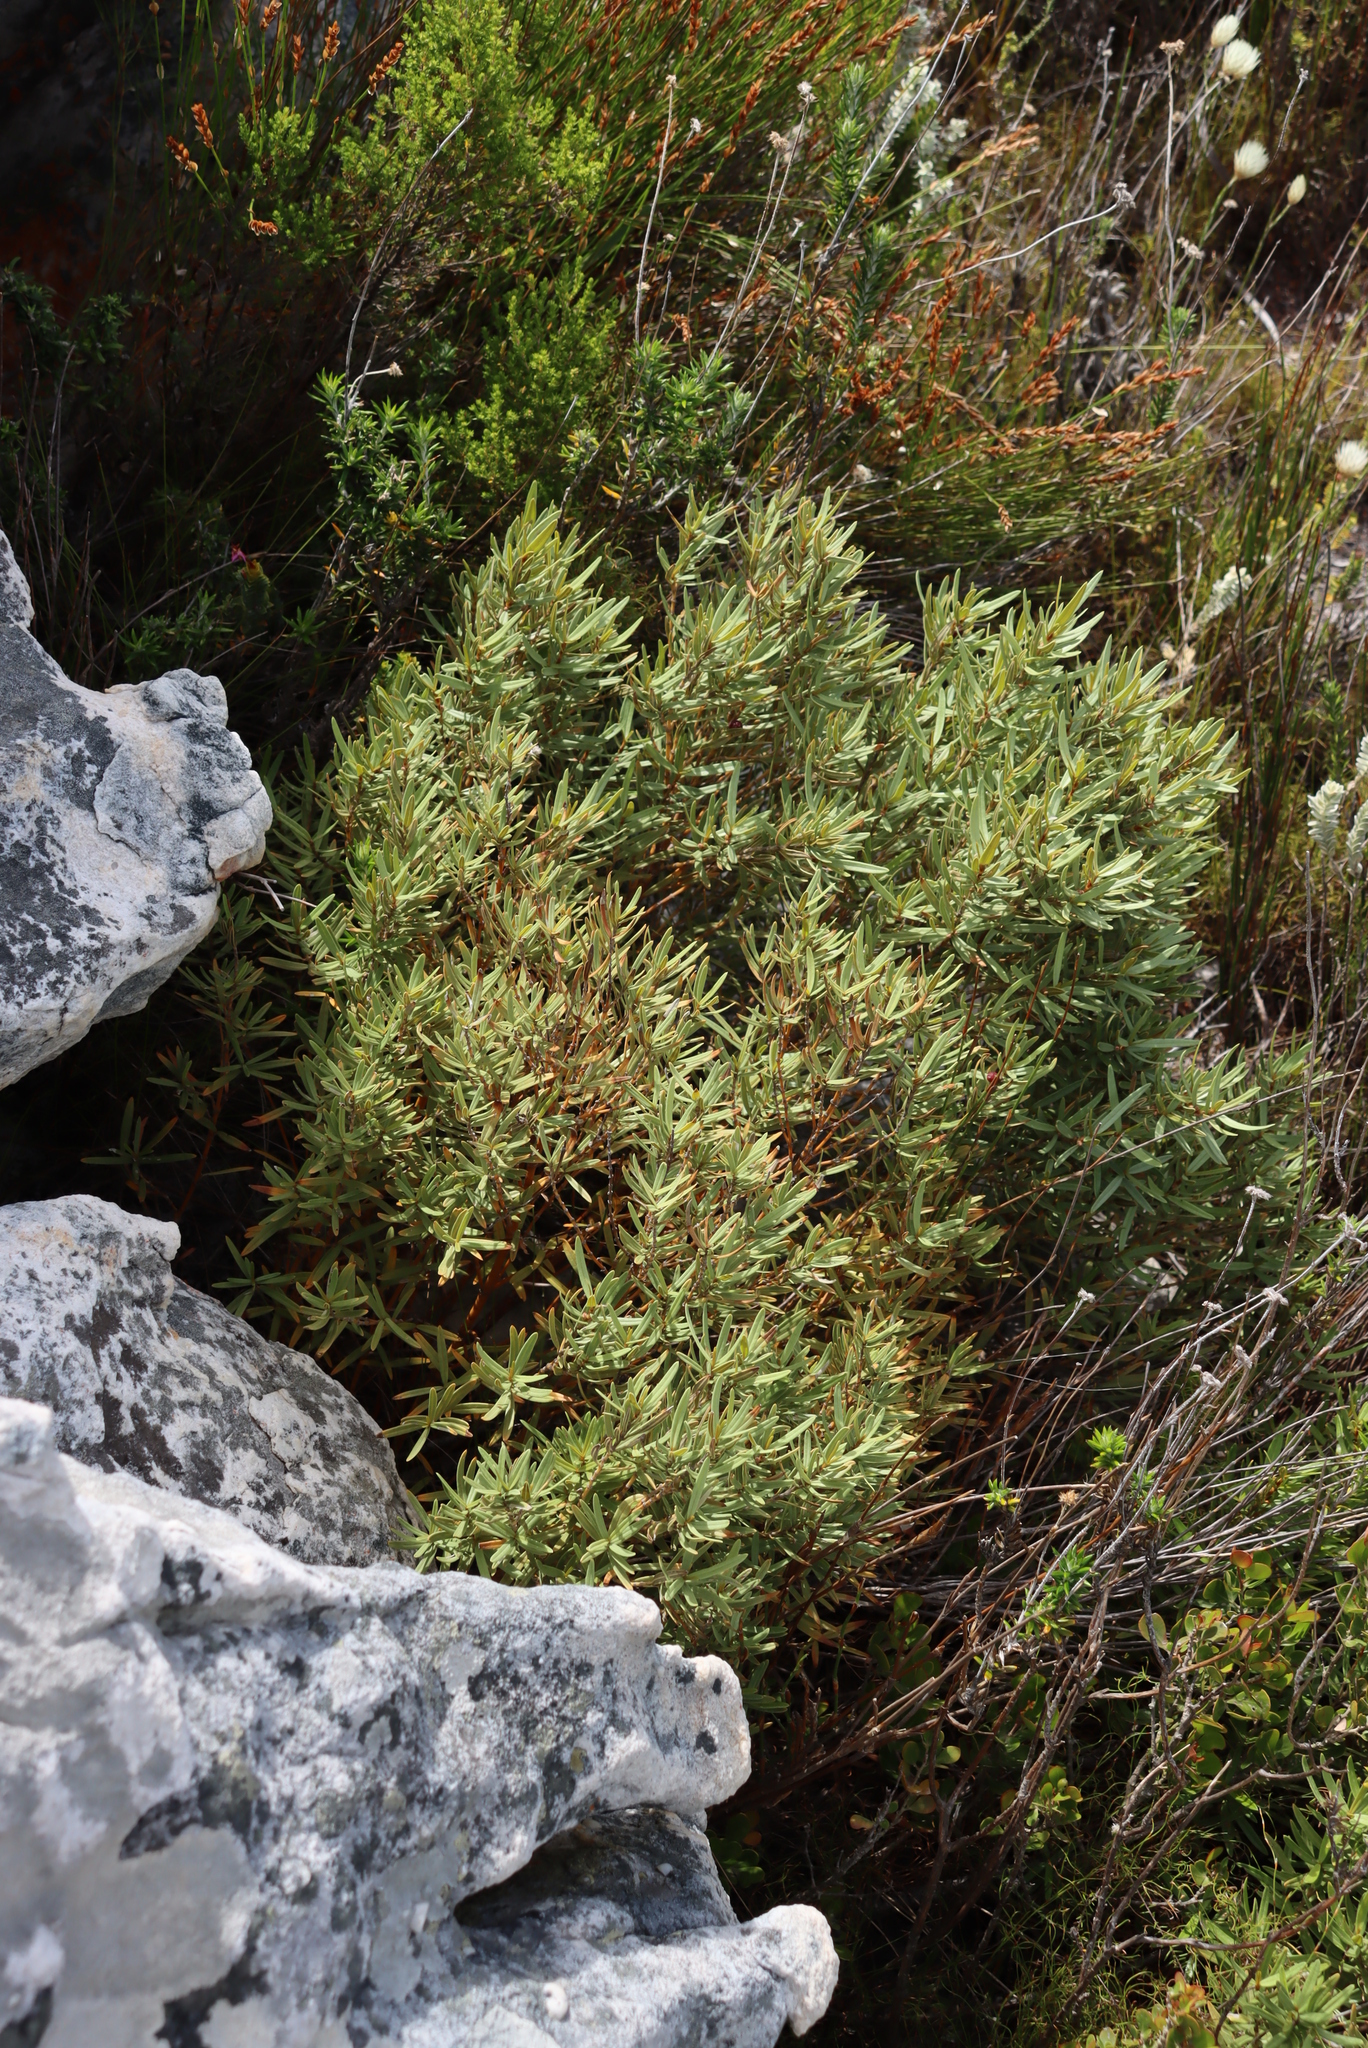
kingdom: Plantae
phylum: Tracheophyta
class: Magnoliopsida
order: Cornales
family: Grubbiaceae
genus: Grubbia
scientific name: Grubbia tomentosa
